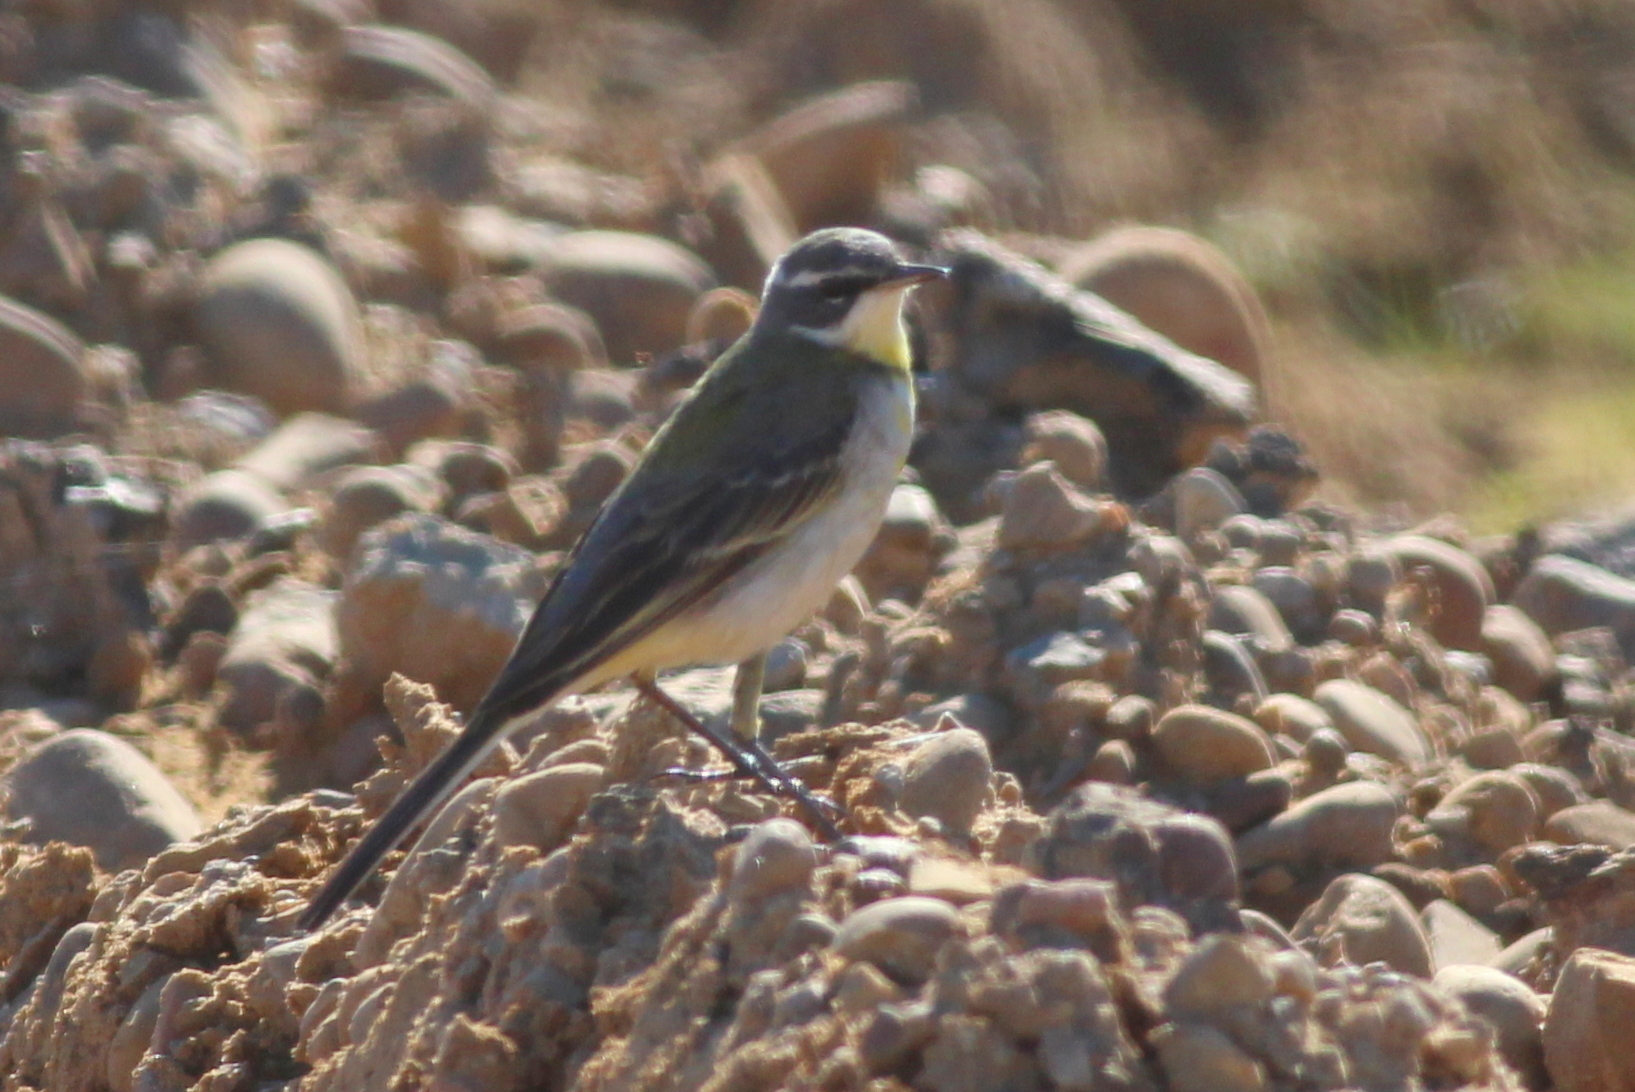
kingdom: Animalia
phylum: Chordata
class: Aves
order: Passeriformes
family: Motacillidae
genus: Motacilla
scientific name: Motacilla flava
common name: Western yellow wagtail
